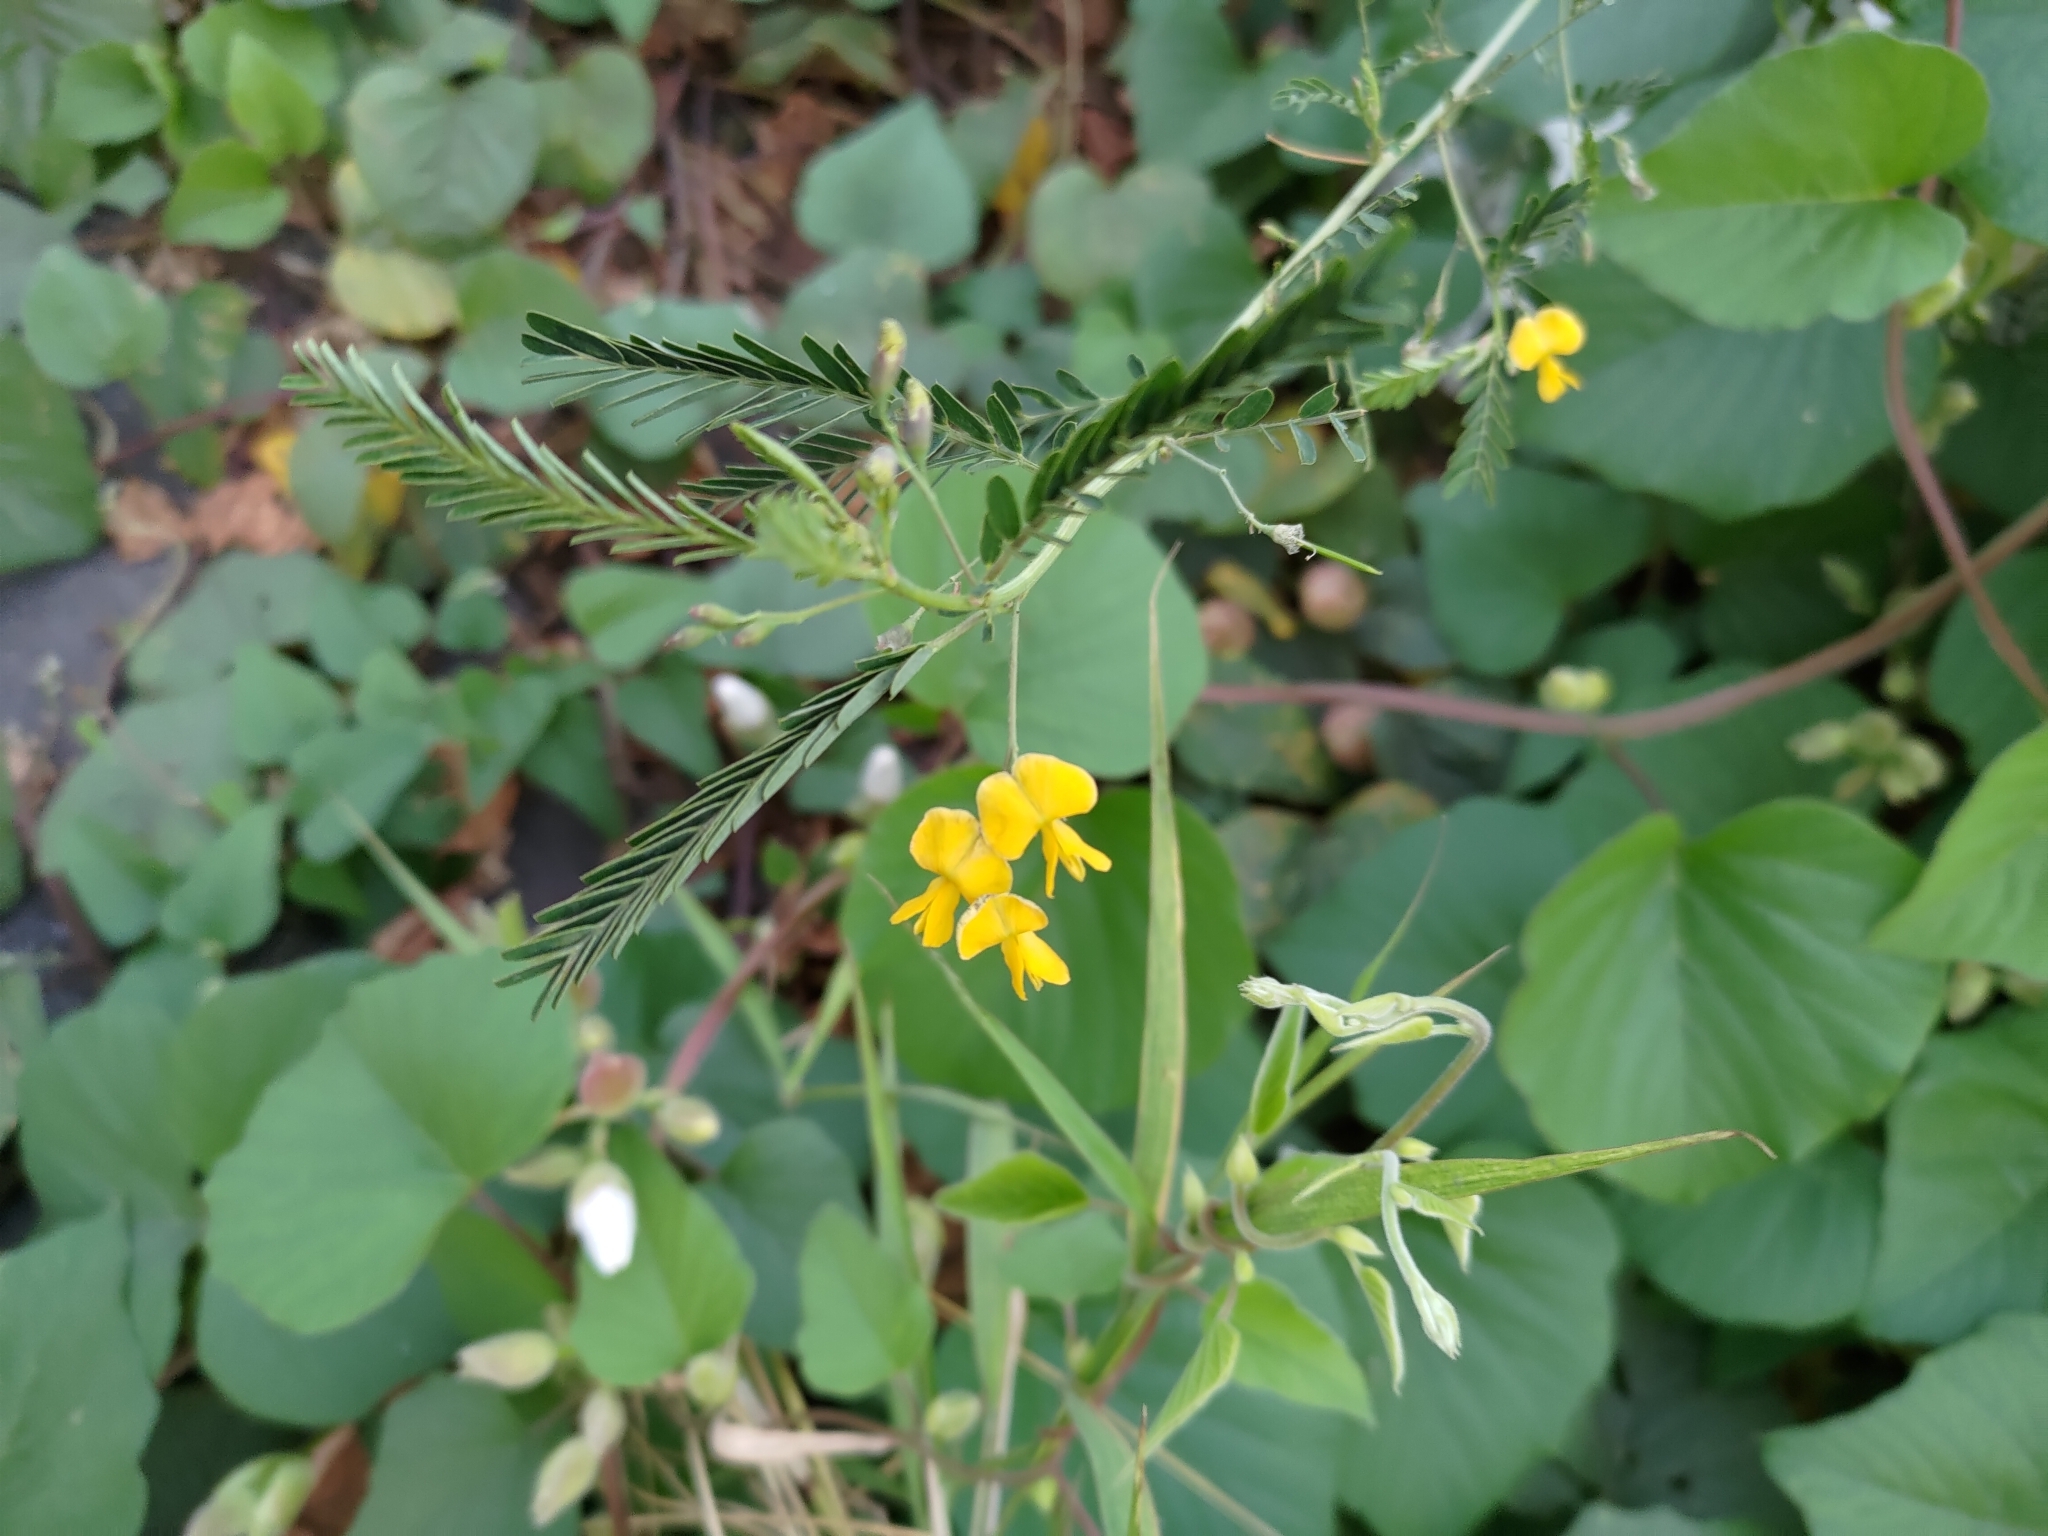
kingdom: Plantae
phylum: Tracheophyta
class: Magnoliopsida
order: Fabales
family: Fabaceae
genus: Sesbania
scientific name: Sesbania cannabina
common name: Canicha
